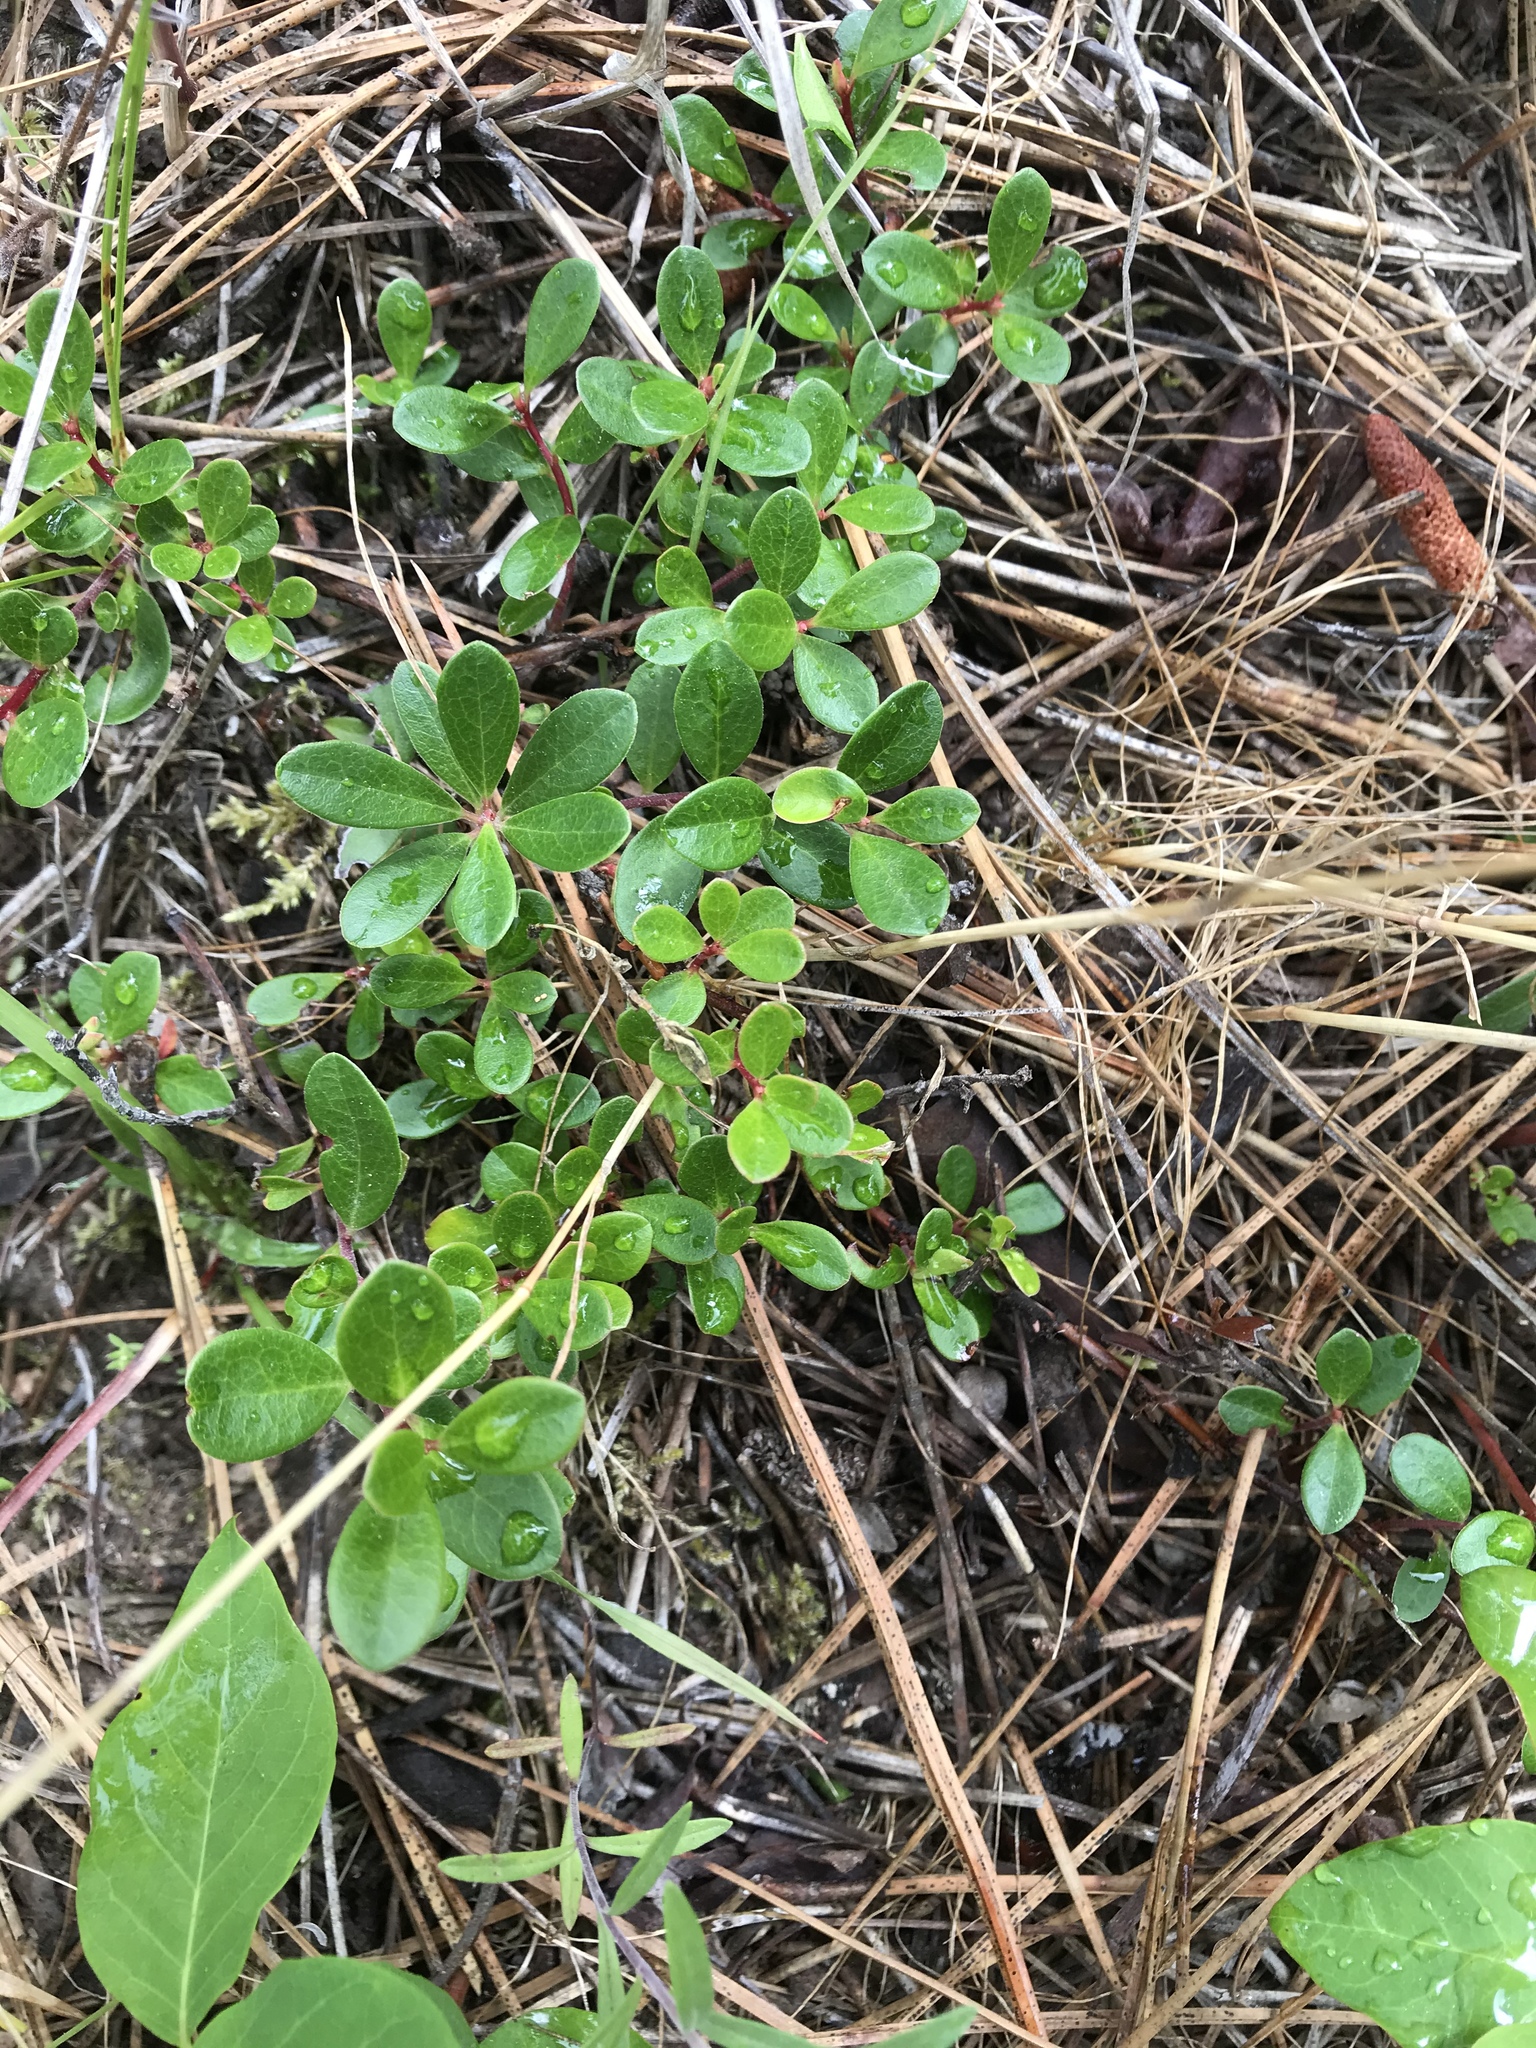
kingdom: Plantae
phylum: Tracheophyta
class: Magnoliopsida
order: Ericales
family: Ericaceae
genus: Arctostaphylos
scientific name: Arctostaphylos uva-ursi
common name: Bearberry
